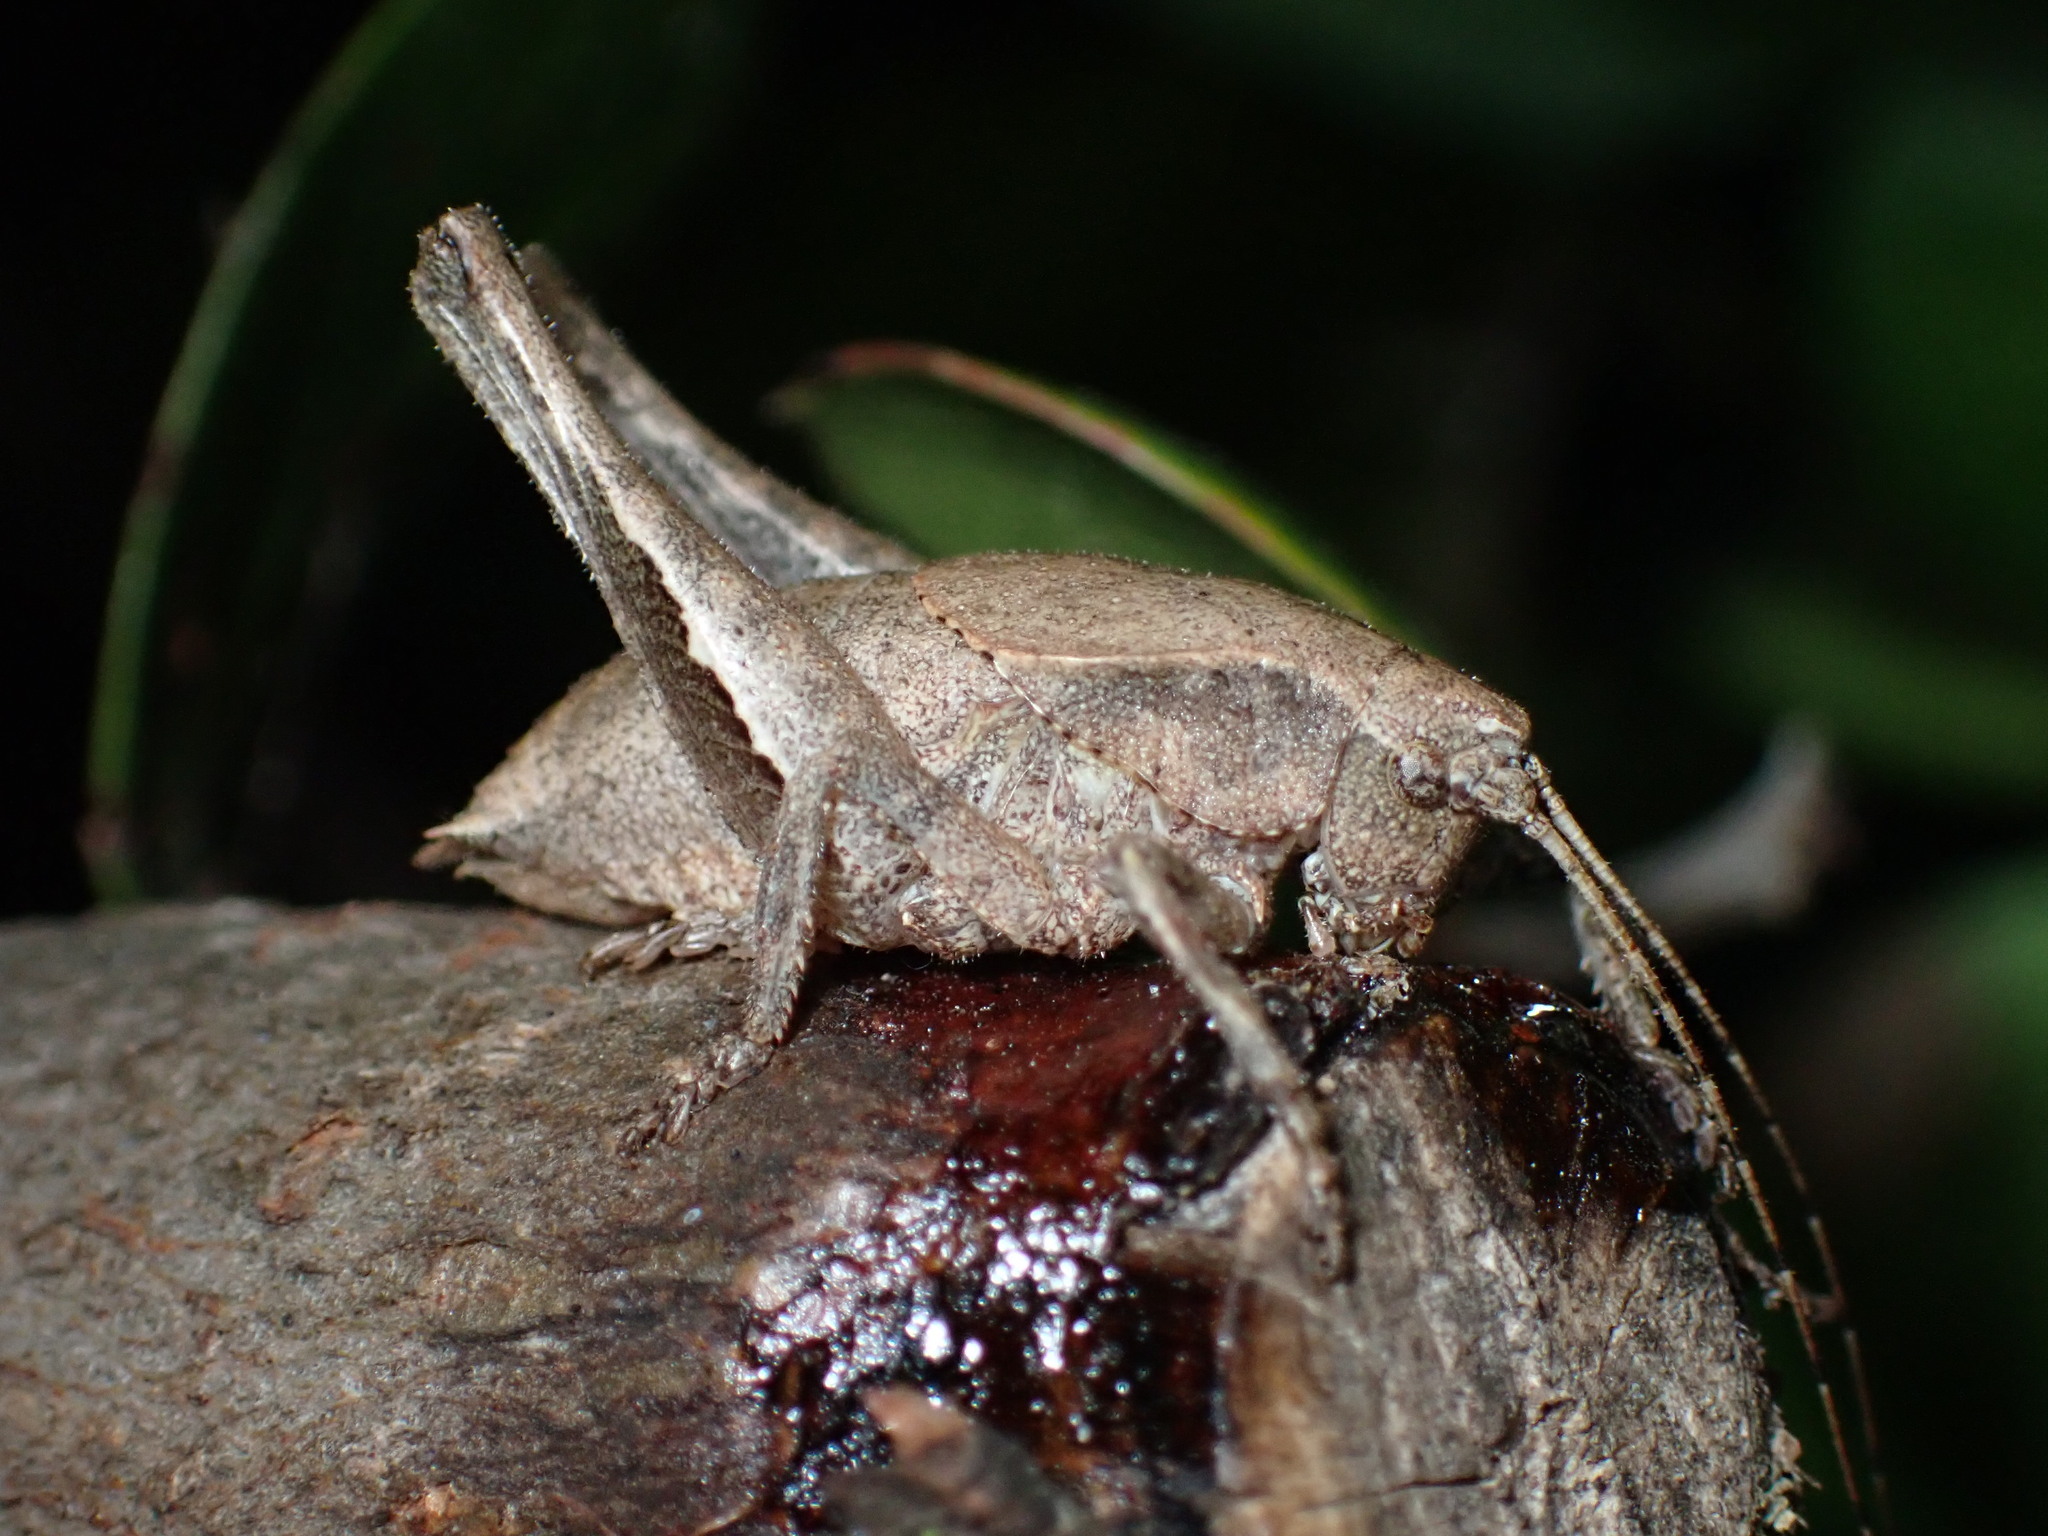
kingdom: Animalia
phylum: Arthropoda
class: Insecta
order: Orthoptera
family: Tettigoniidae
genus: Aglaothorax
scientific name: Aglaothorax morsei
